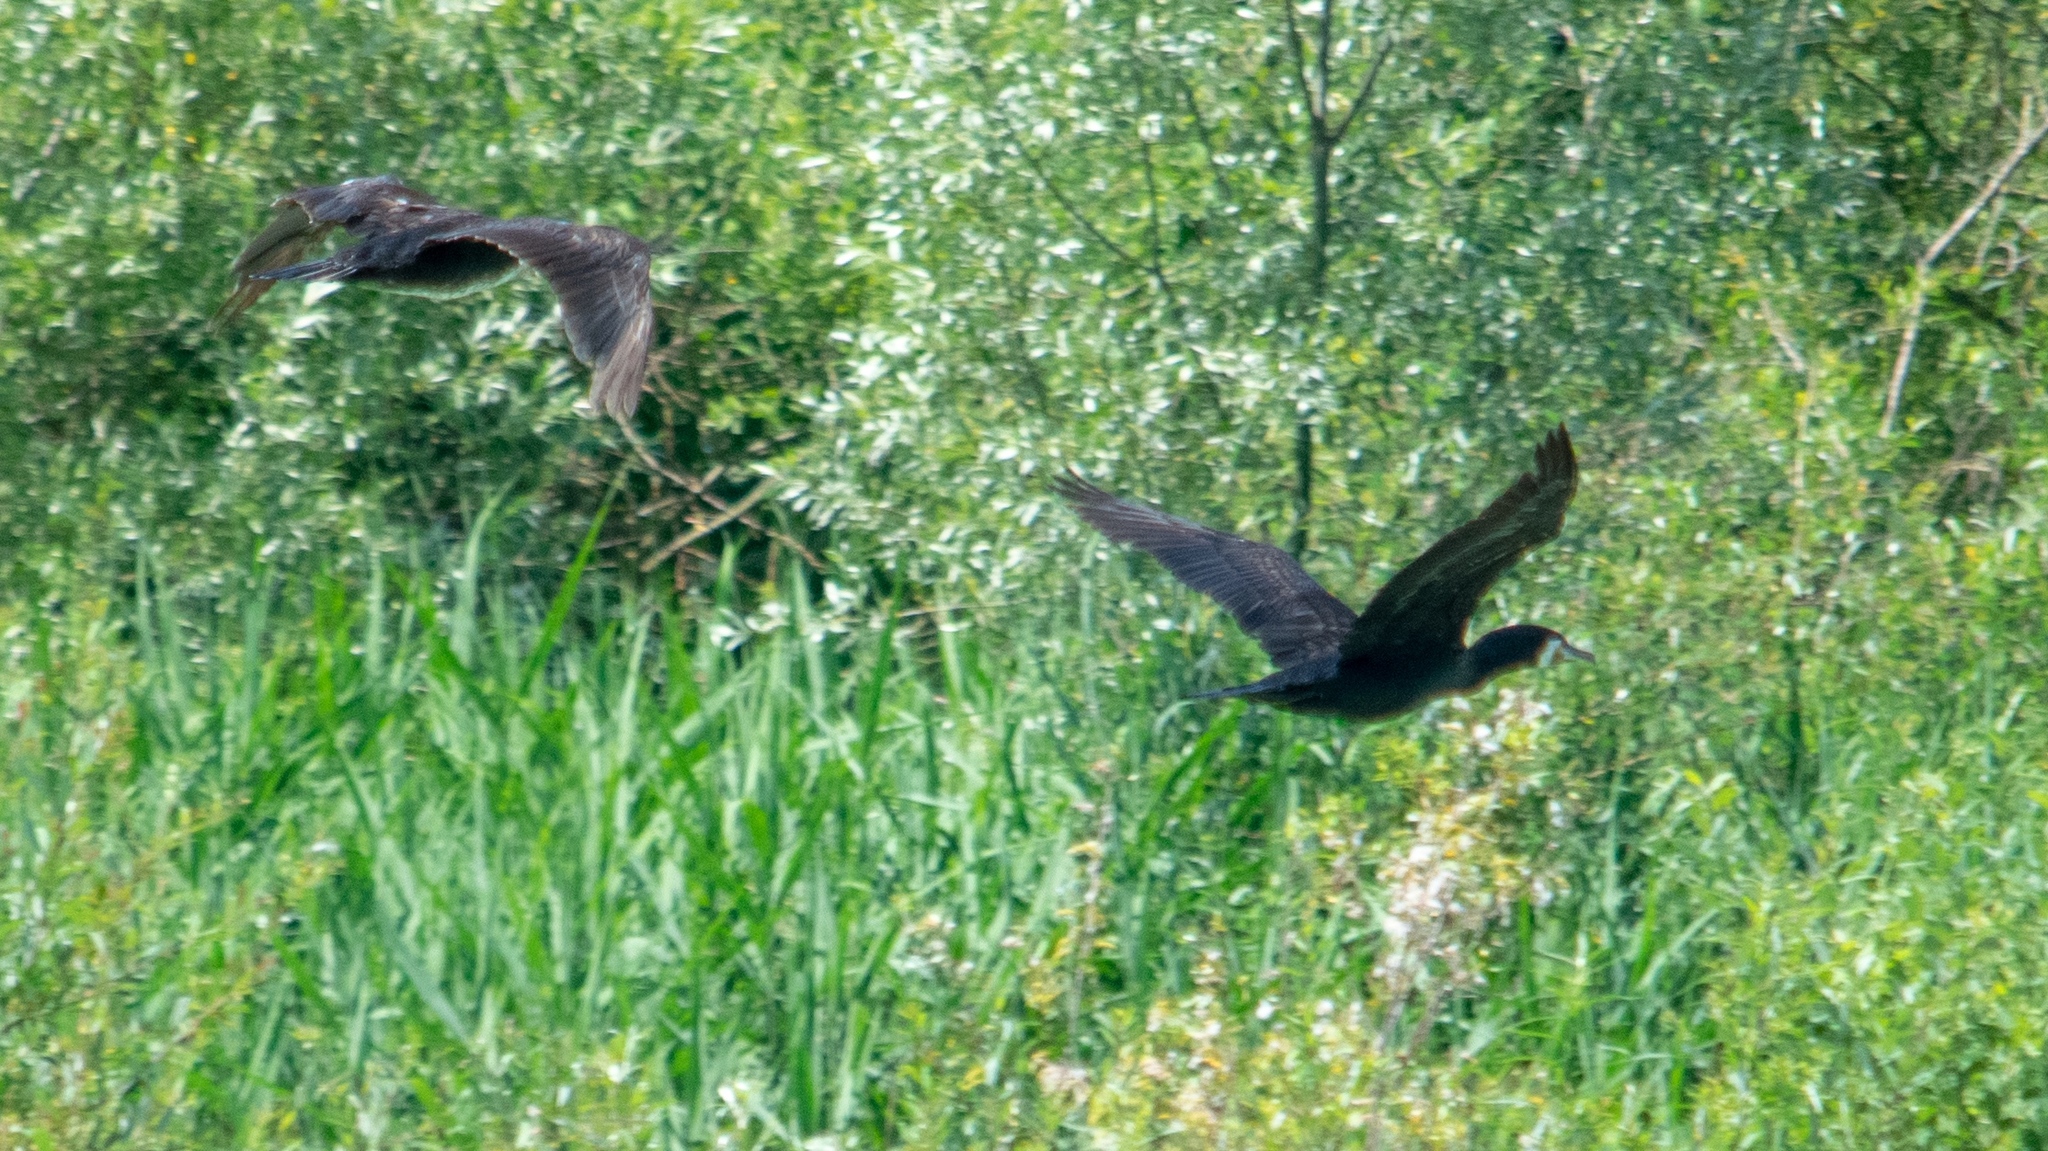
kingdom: Animalia
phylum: Chordata
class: Aves
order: Suliformes
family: Phalacrocoracidae
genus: Phalacrocorax
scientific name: Phalacrocorax carbo
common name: Great cormorant
